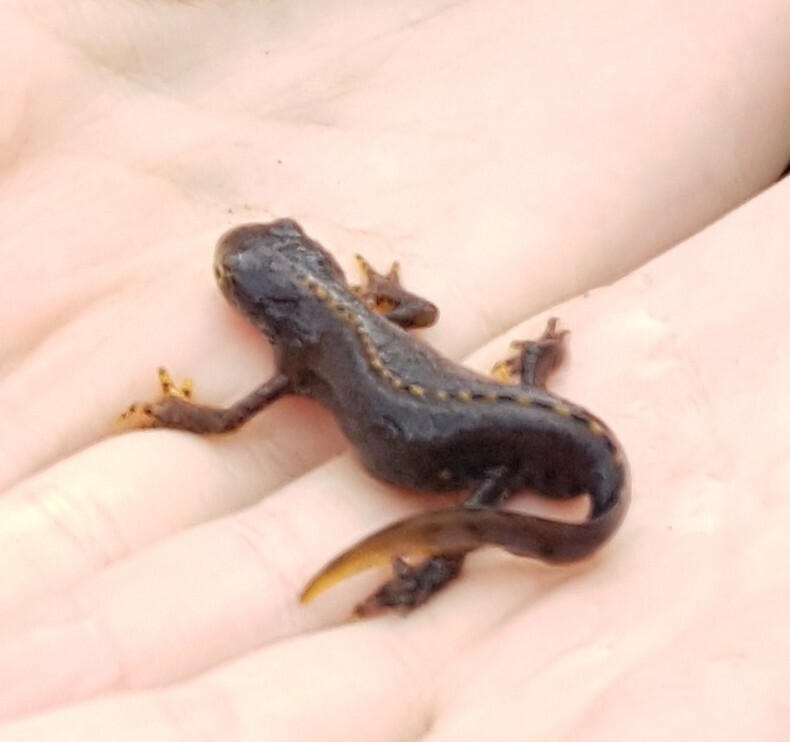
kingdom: Animalia
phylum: Chordata
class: Amphibia
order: Caudata
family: Salamandridae
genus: Ichthyosaura
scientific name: Ichthyosaura alpestris
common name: Alpine newt
